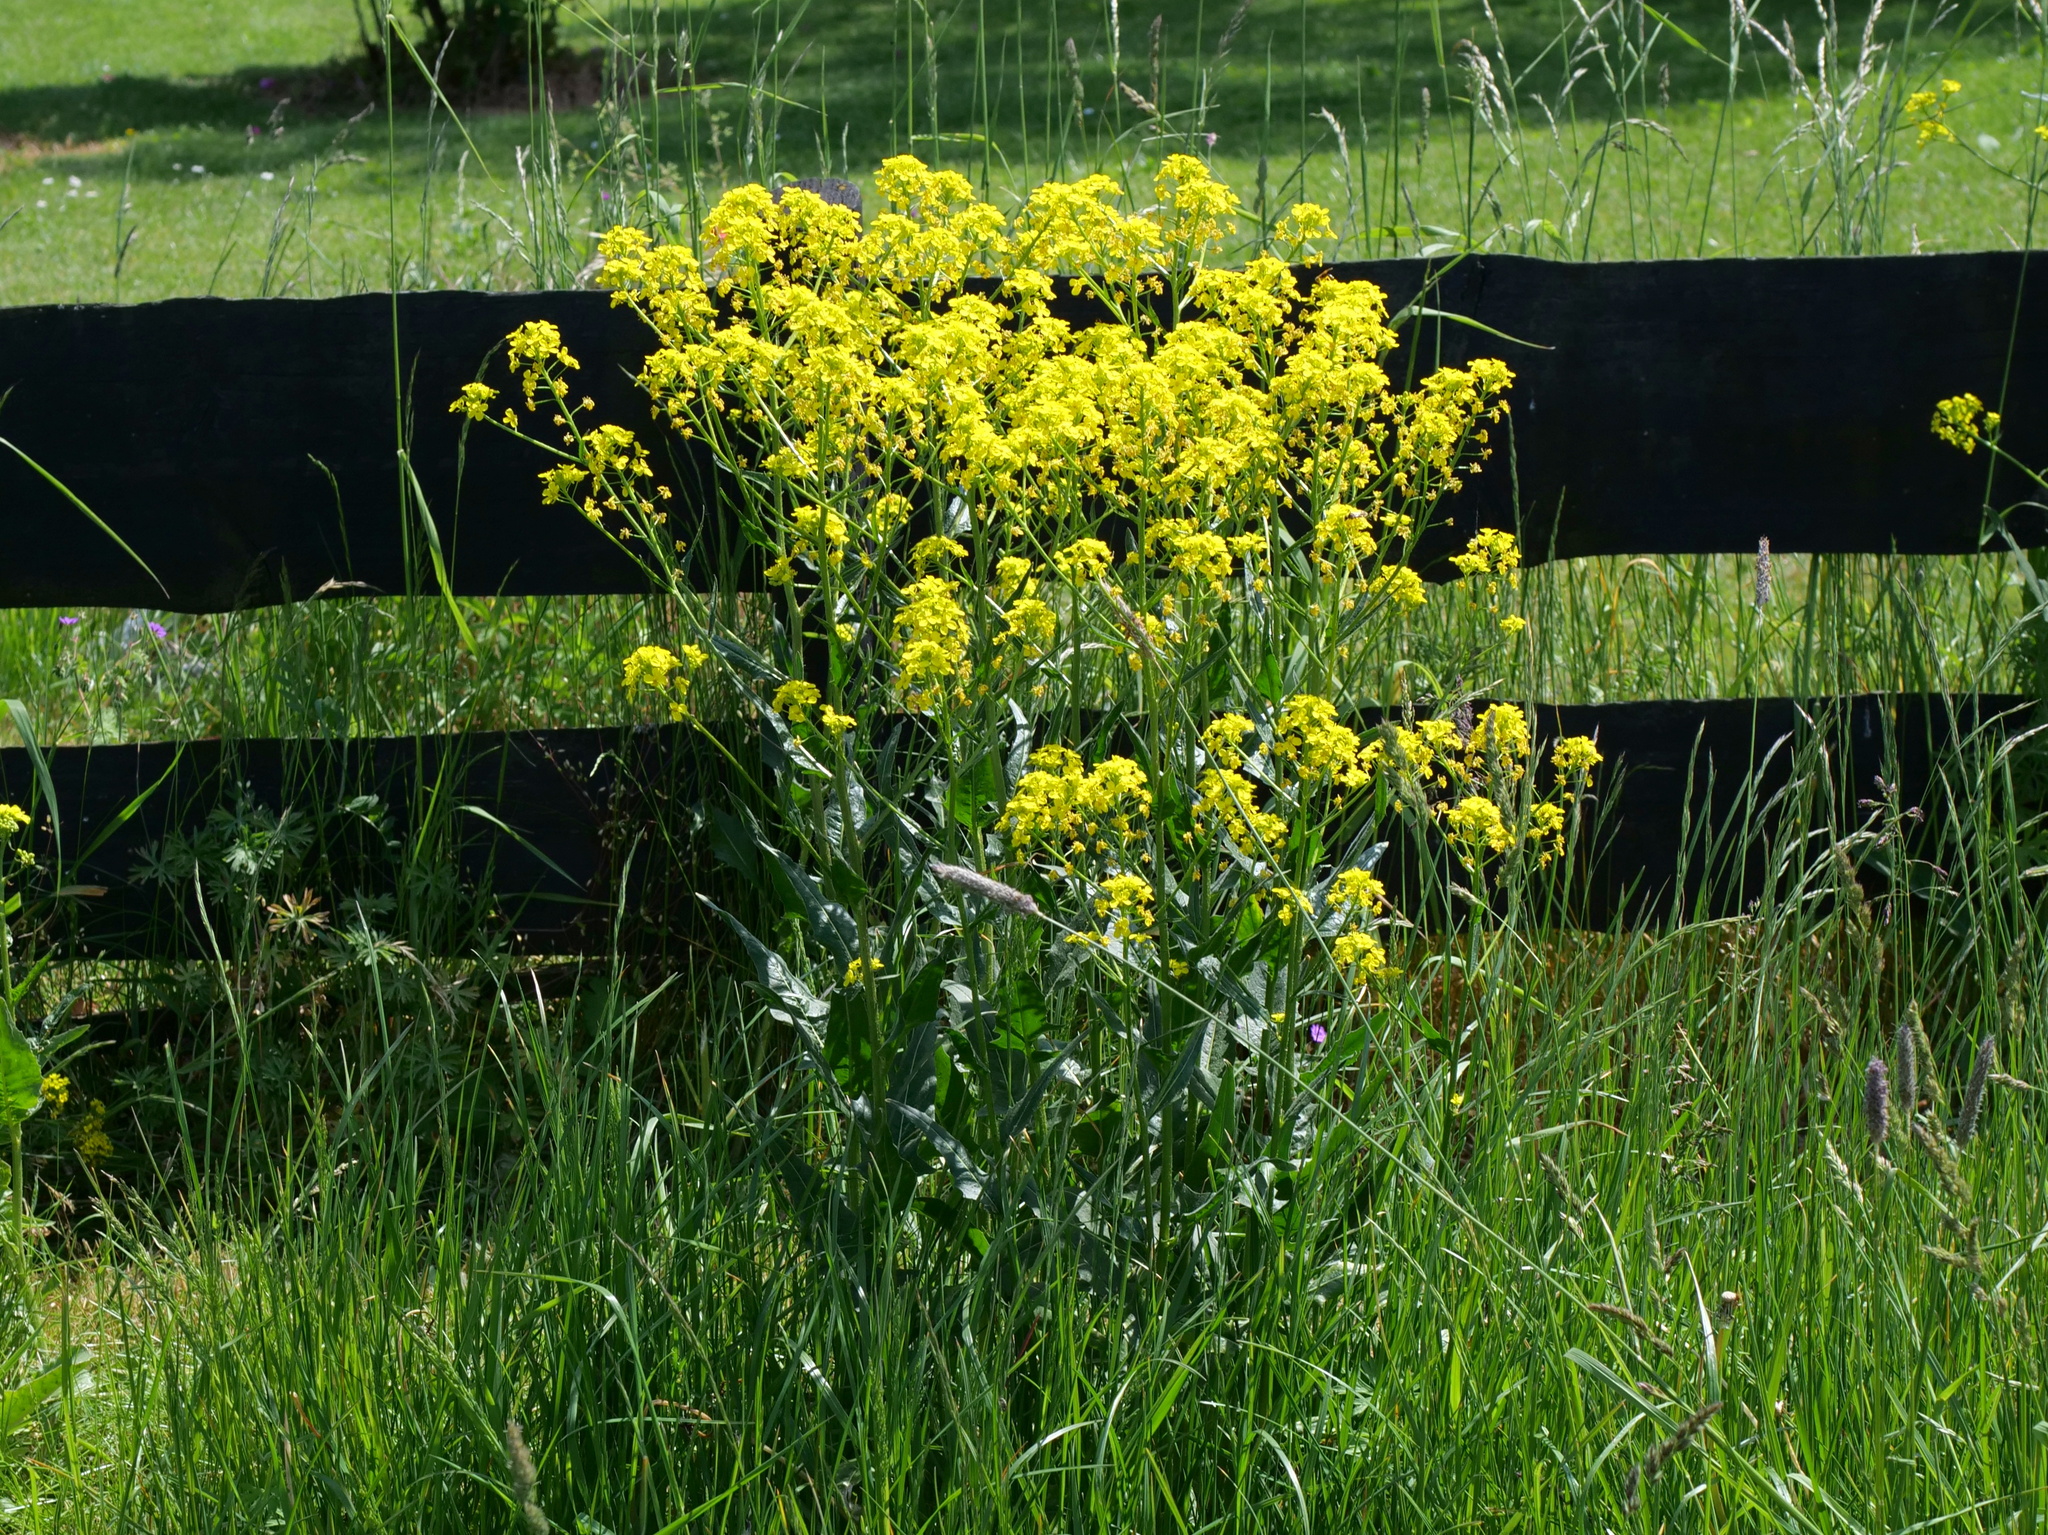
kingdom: Plantae
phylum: Tracheophyta
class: Magnoliopsida
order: Brassicales
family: Brassicaceae
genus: Bunias
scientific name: Bunias orientalis
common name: Warty-cabbage
